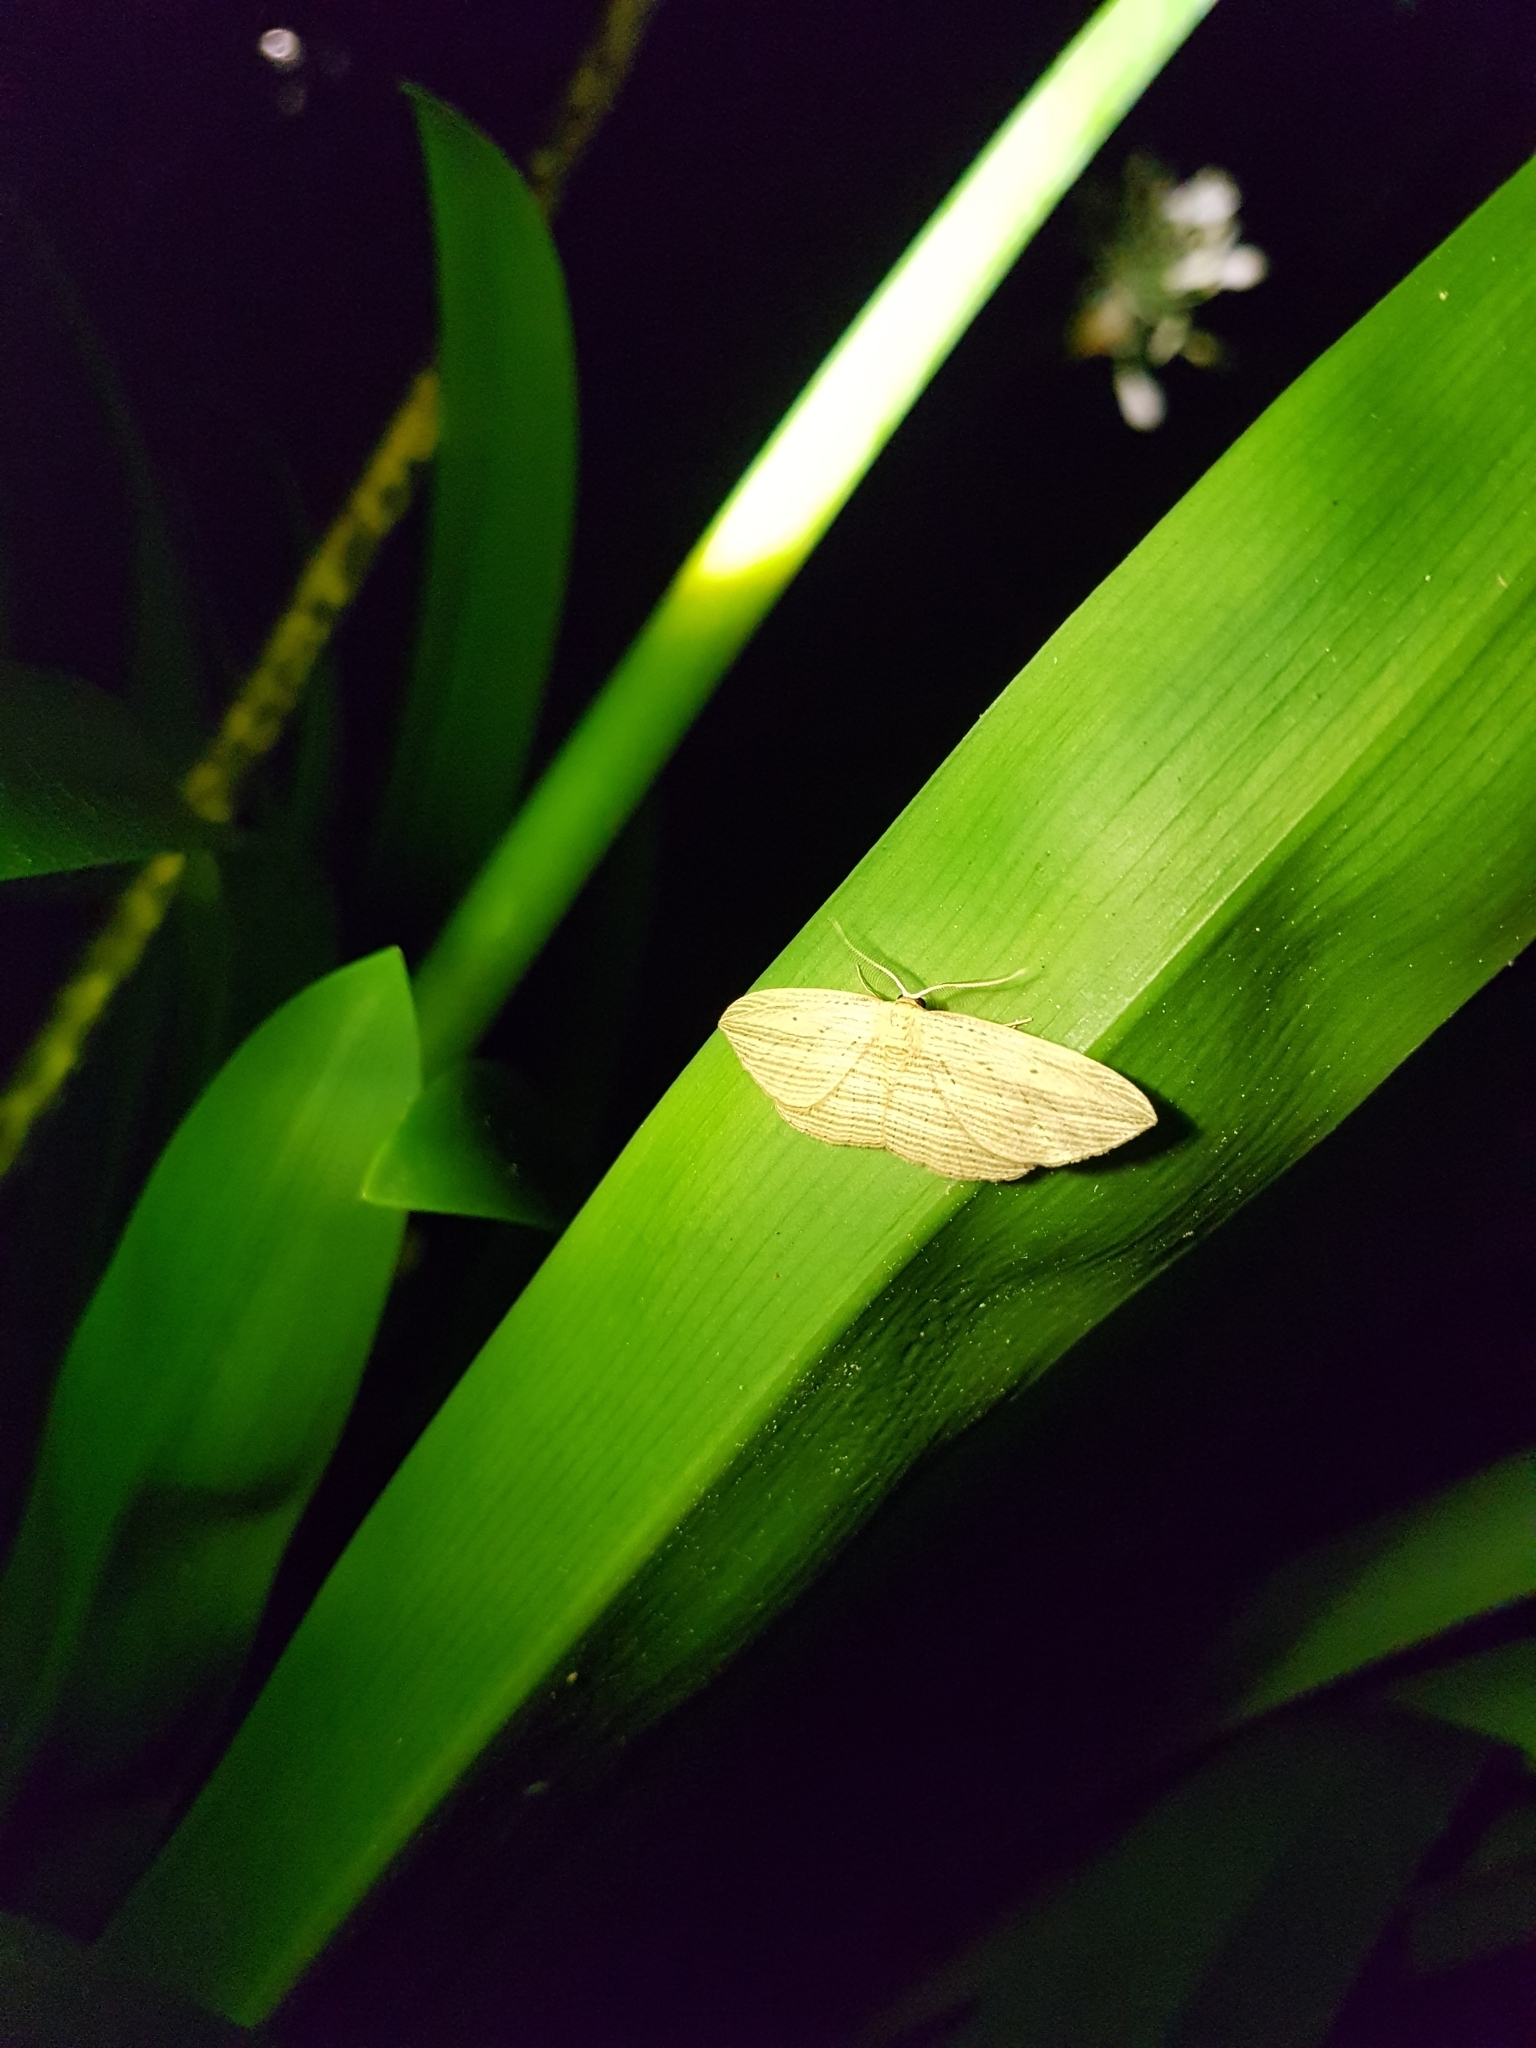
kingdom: Animalia
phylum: Arthropoda
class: Insecta
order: Lepidoptera
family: Geometridae
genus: Epiphryne
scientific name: Epiphryne verriculata
